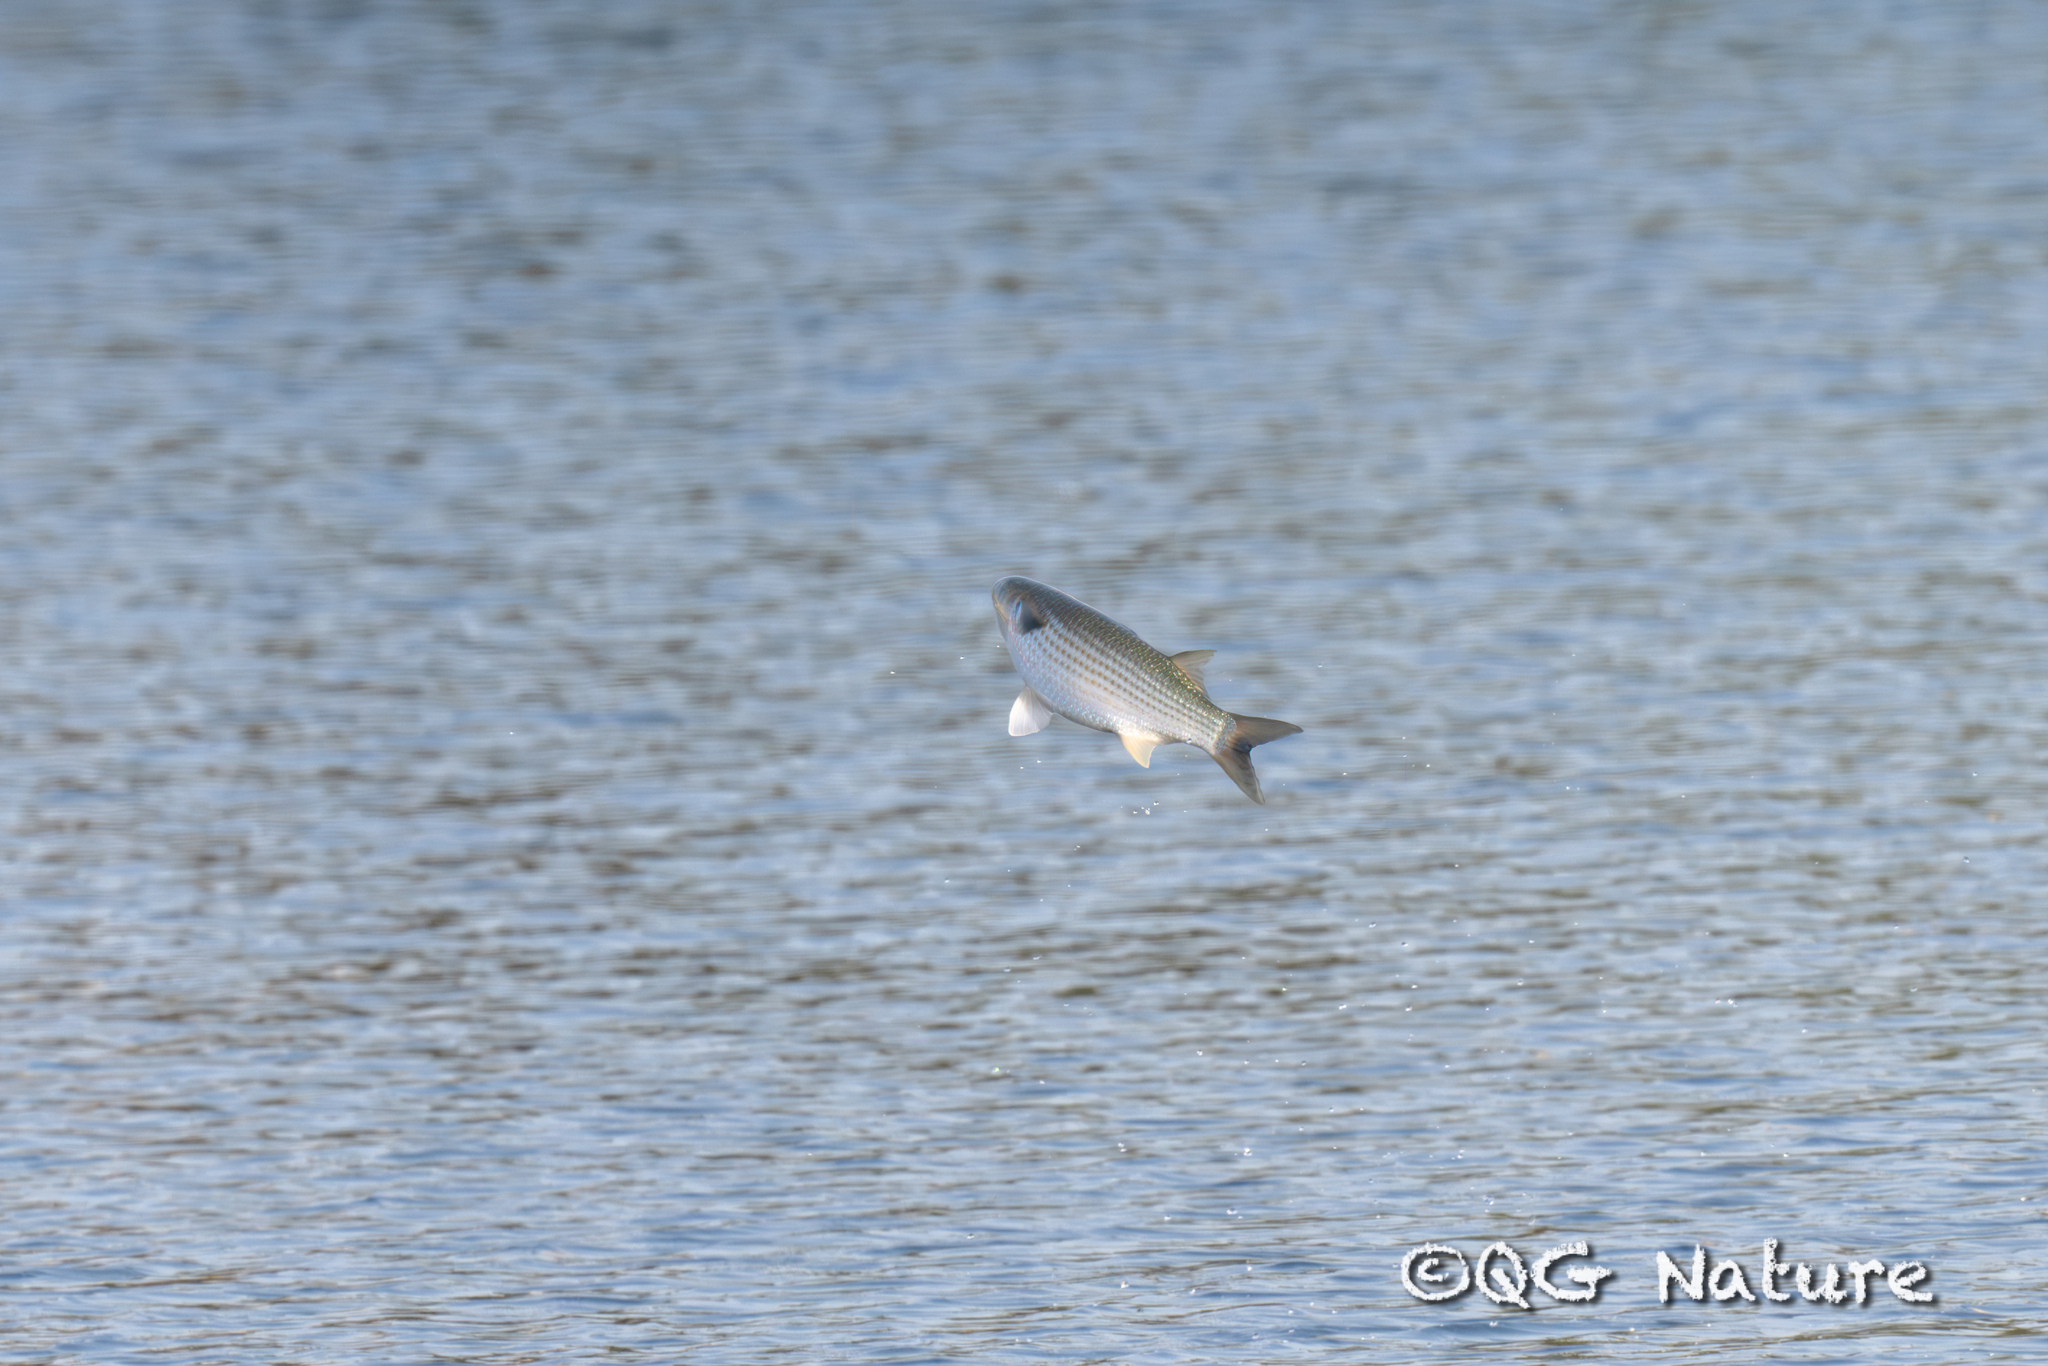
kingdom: Animalia
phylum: Chordata
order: Mugiliformes
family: Mugilidae
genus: Mugil
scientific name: Mugil cephalus
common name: Grey mullet
